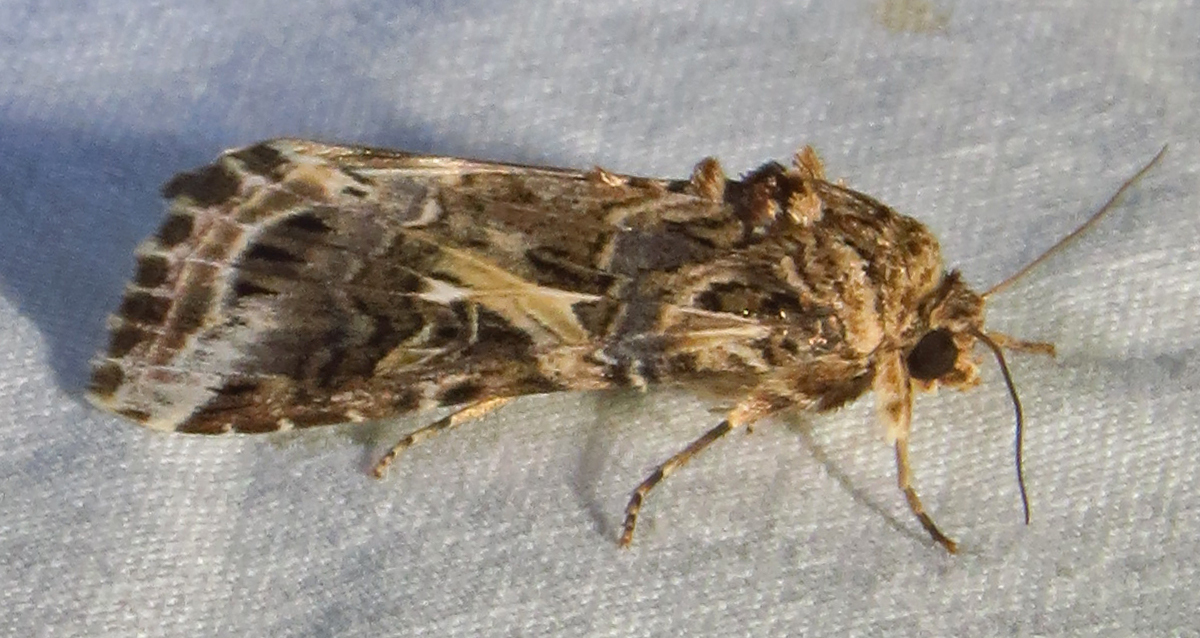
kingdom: Animalia
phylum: Arthropoda
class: Insecta
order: Lepidoptera
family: Noctuidae
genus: Spodoptera
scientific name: Spodoptera ornithogalli
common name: Yellow-striped armyworm
